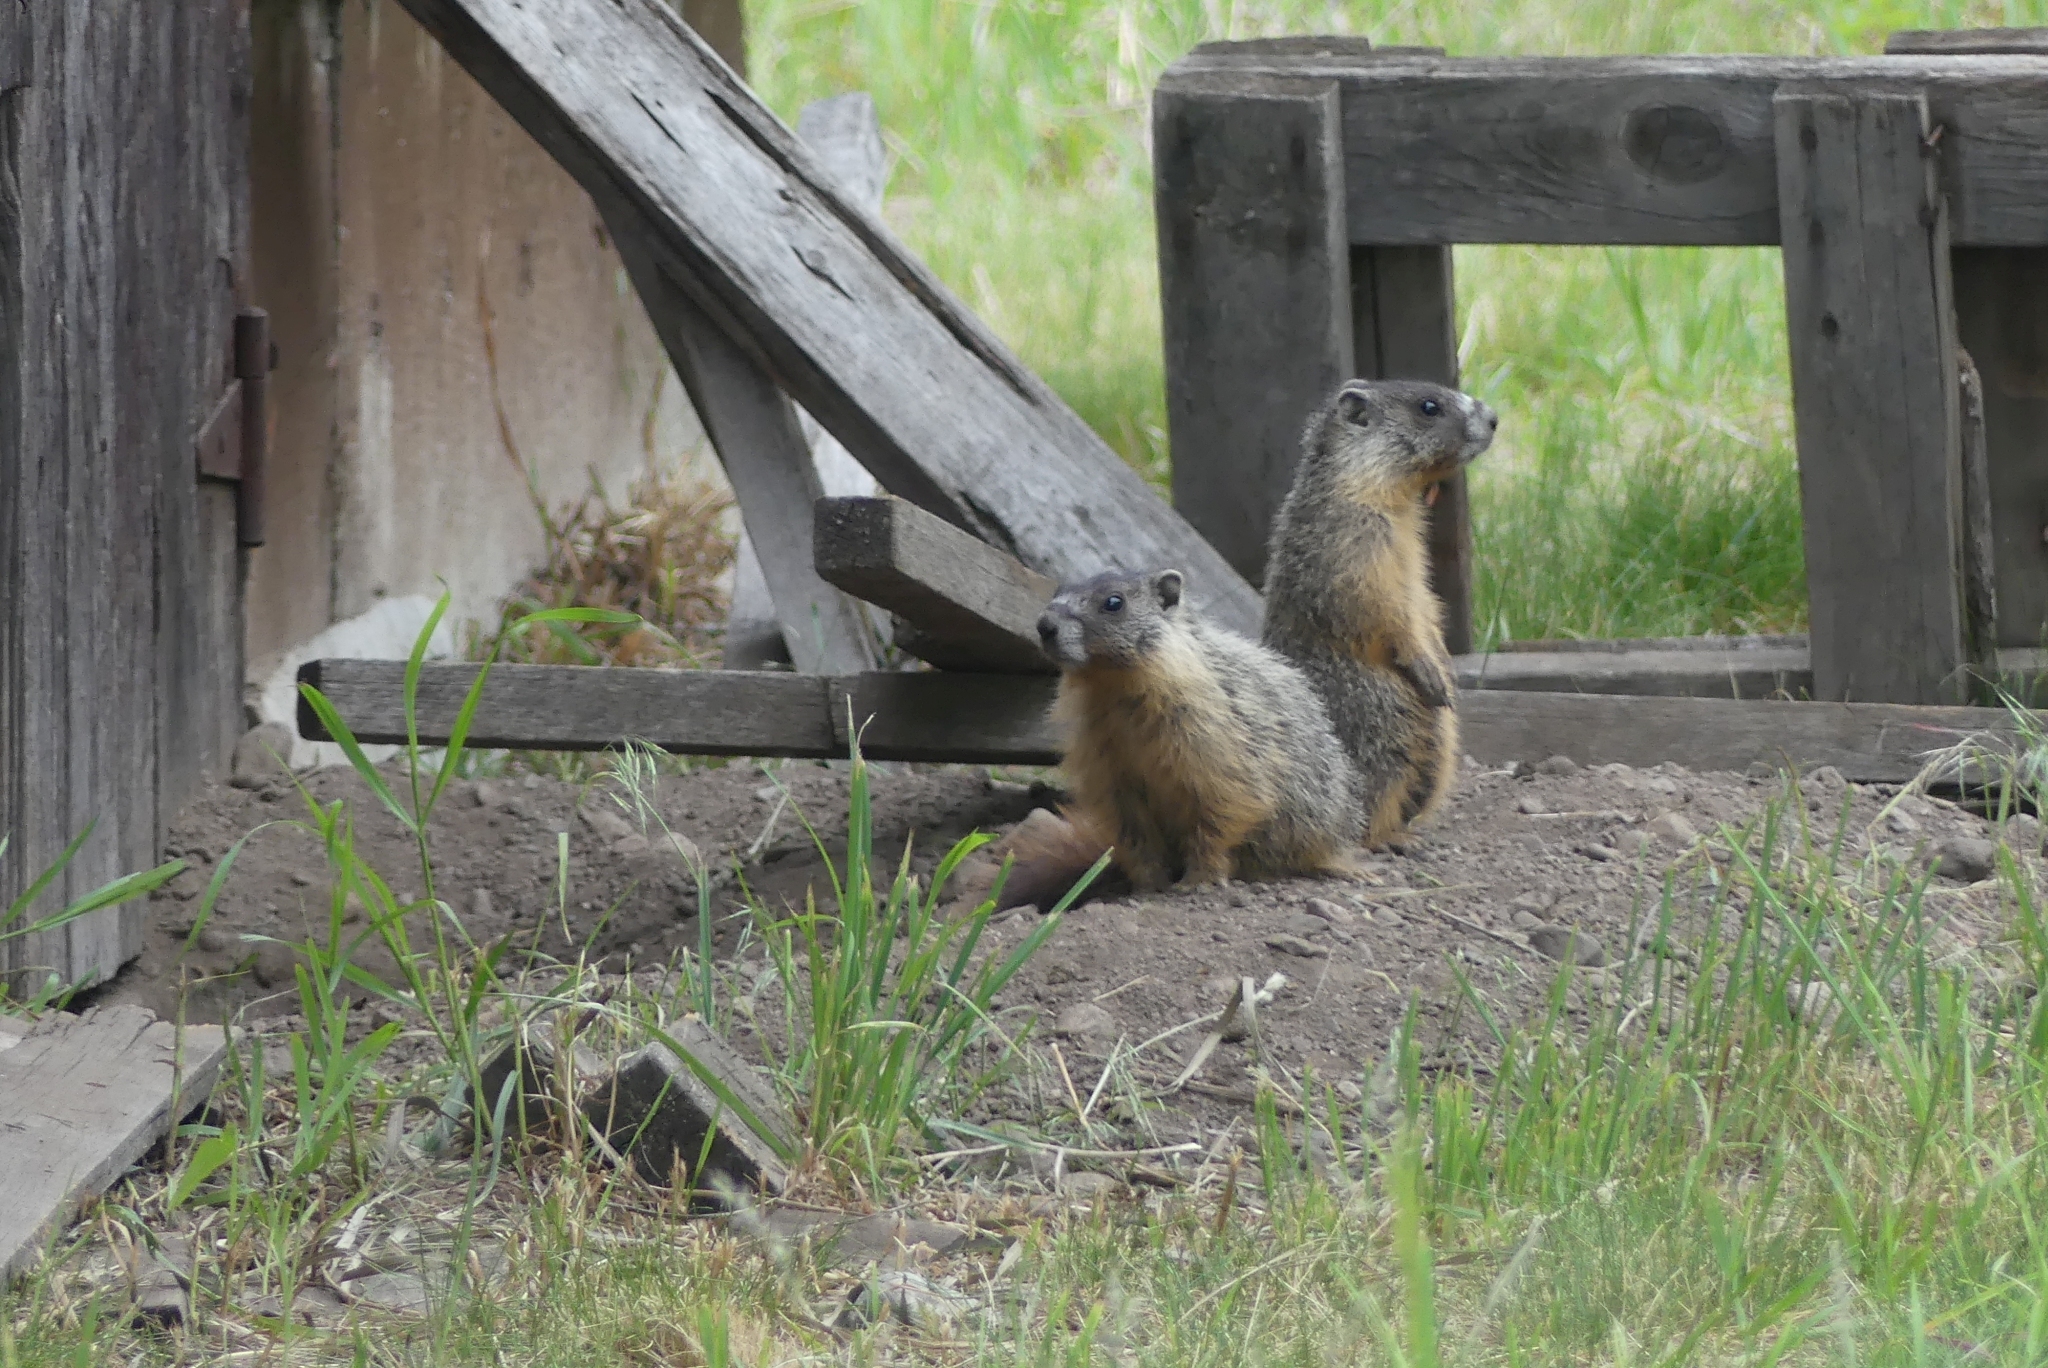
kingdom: Animalia
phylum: Chordata
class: Mammalia
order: Rodentia
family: Sciuridae
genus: Marmota
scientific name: Marmota flaviventris
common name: Yellow-bellied marmot
